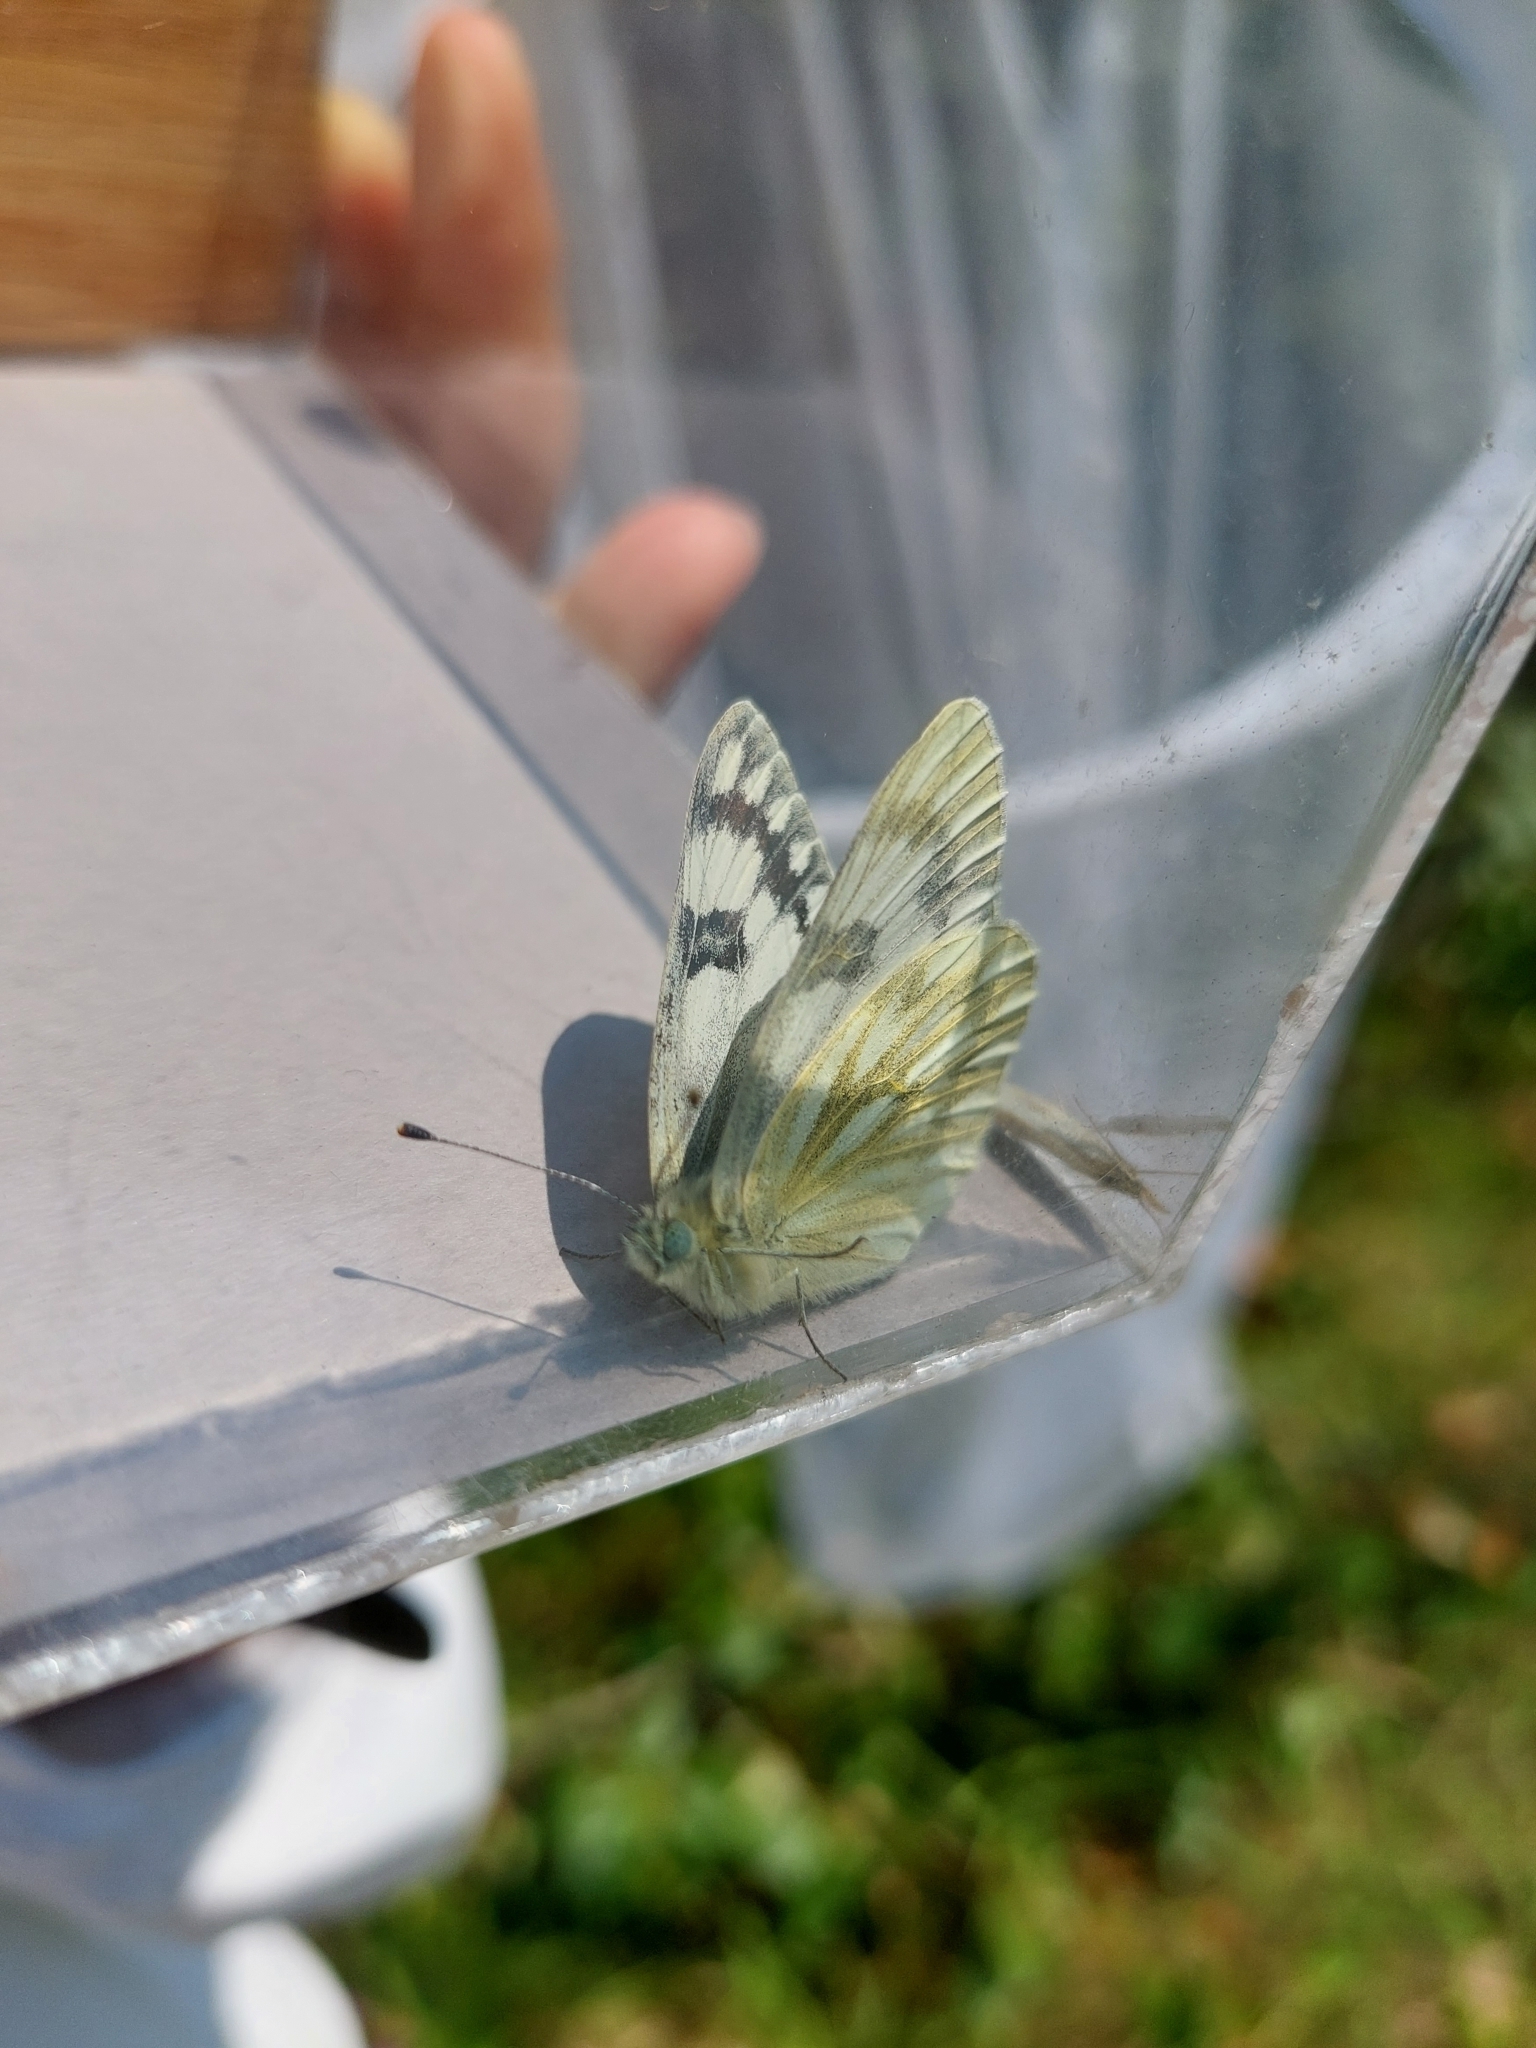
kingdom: Animalia
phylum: Arthropoda
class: Insecta
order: Lepidoptera
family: Pieridae
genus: Pontia
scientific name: Pontia occidentalis
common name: Western white
